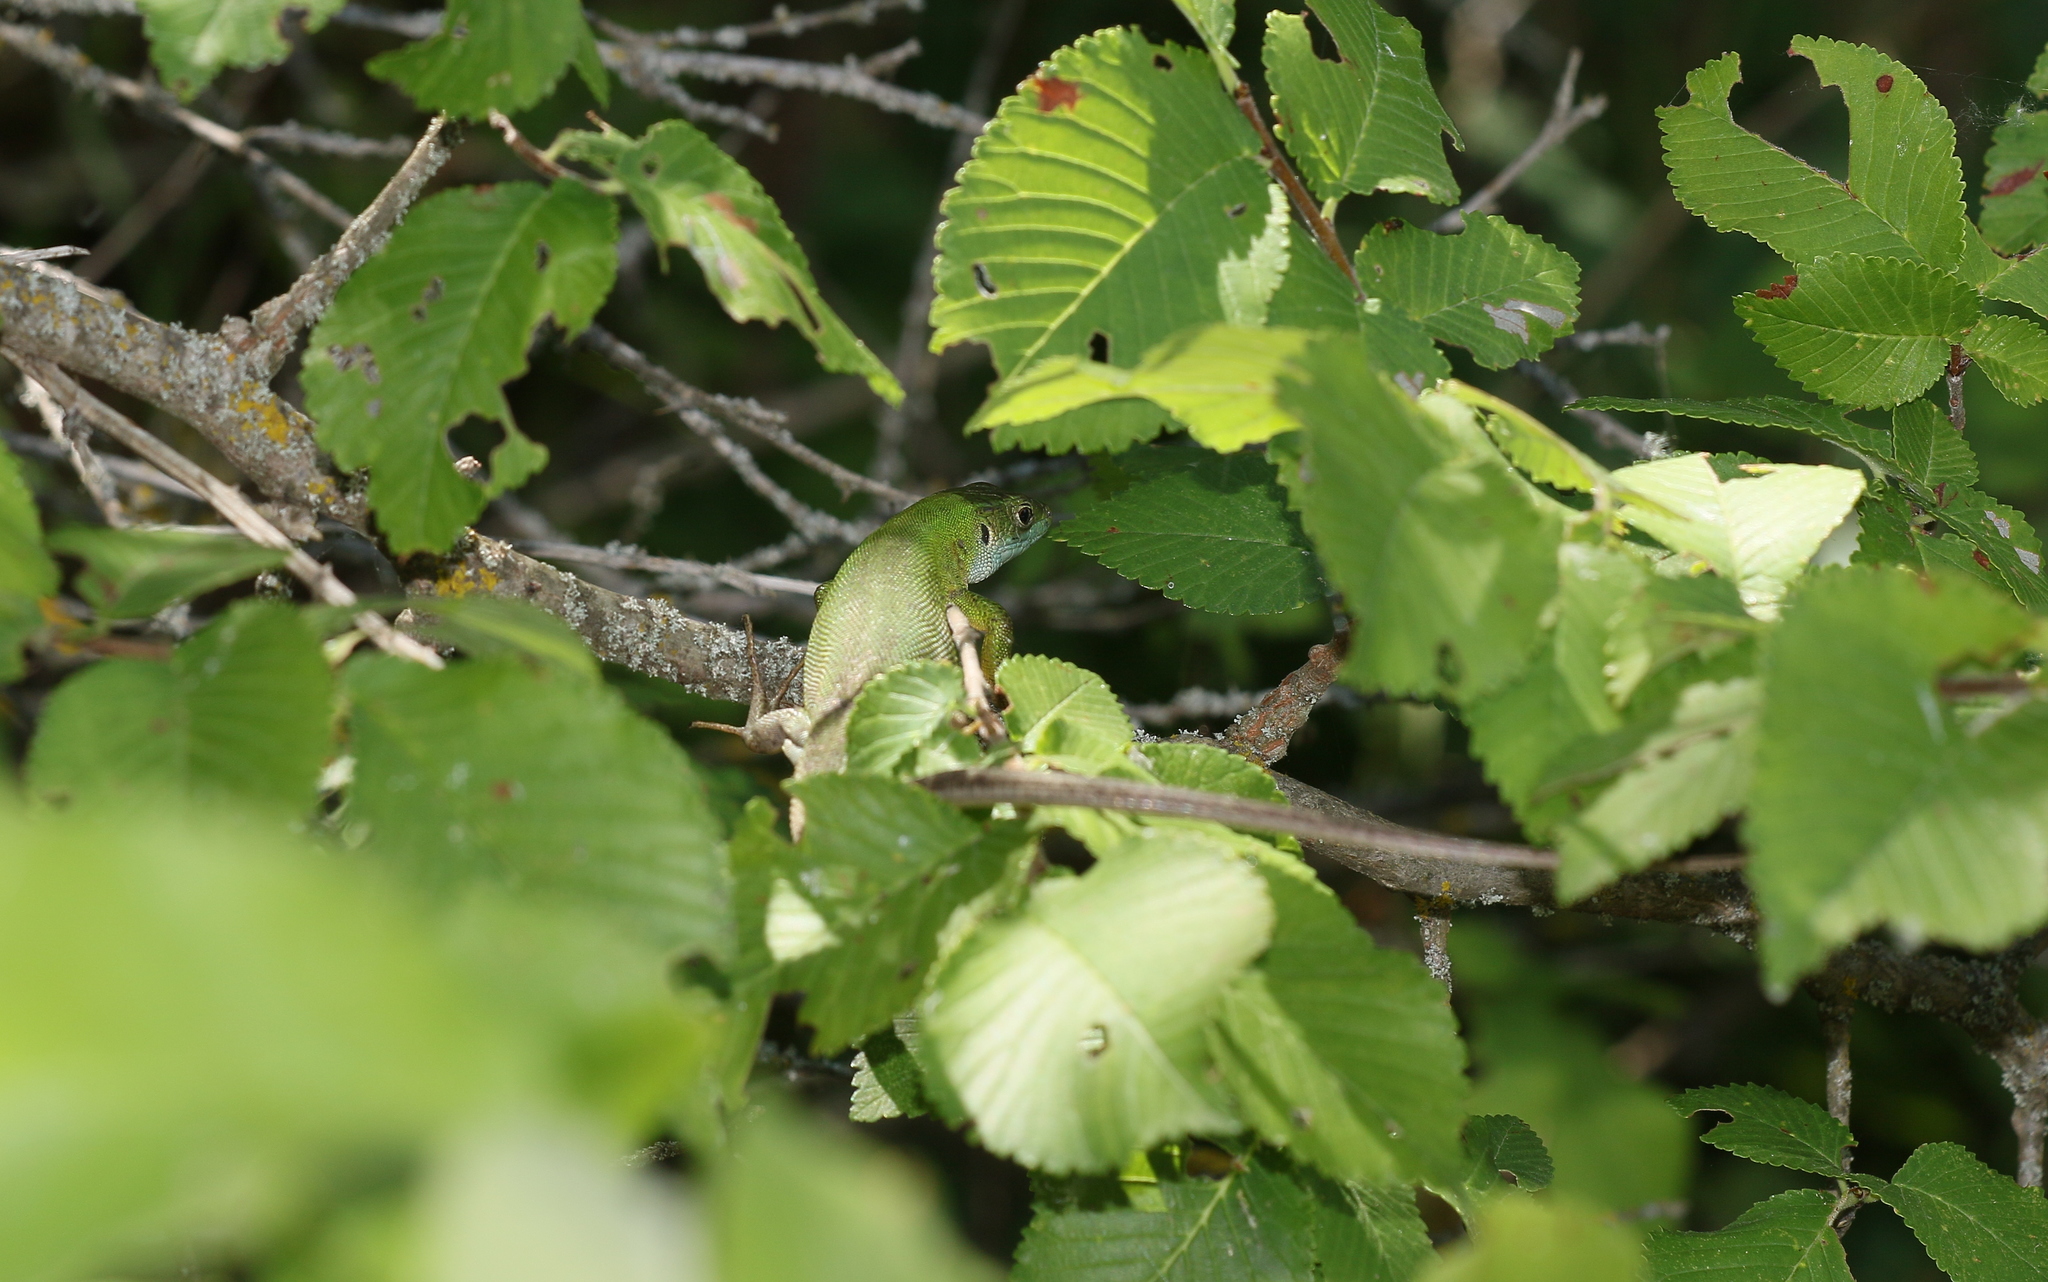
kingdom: Animalia
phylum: Chordata
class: Squamata
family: Lacertidae
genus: Lacerta
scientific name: Lacerta viridis
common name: European green lizard
